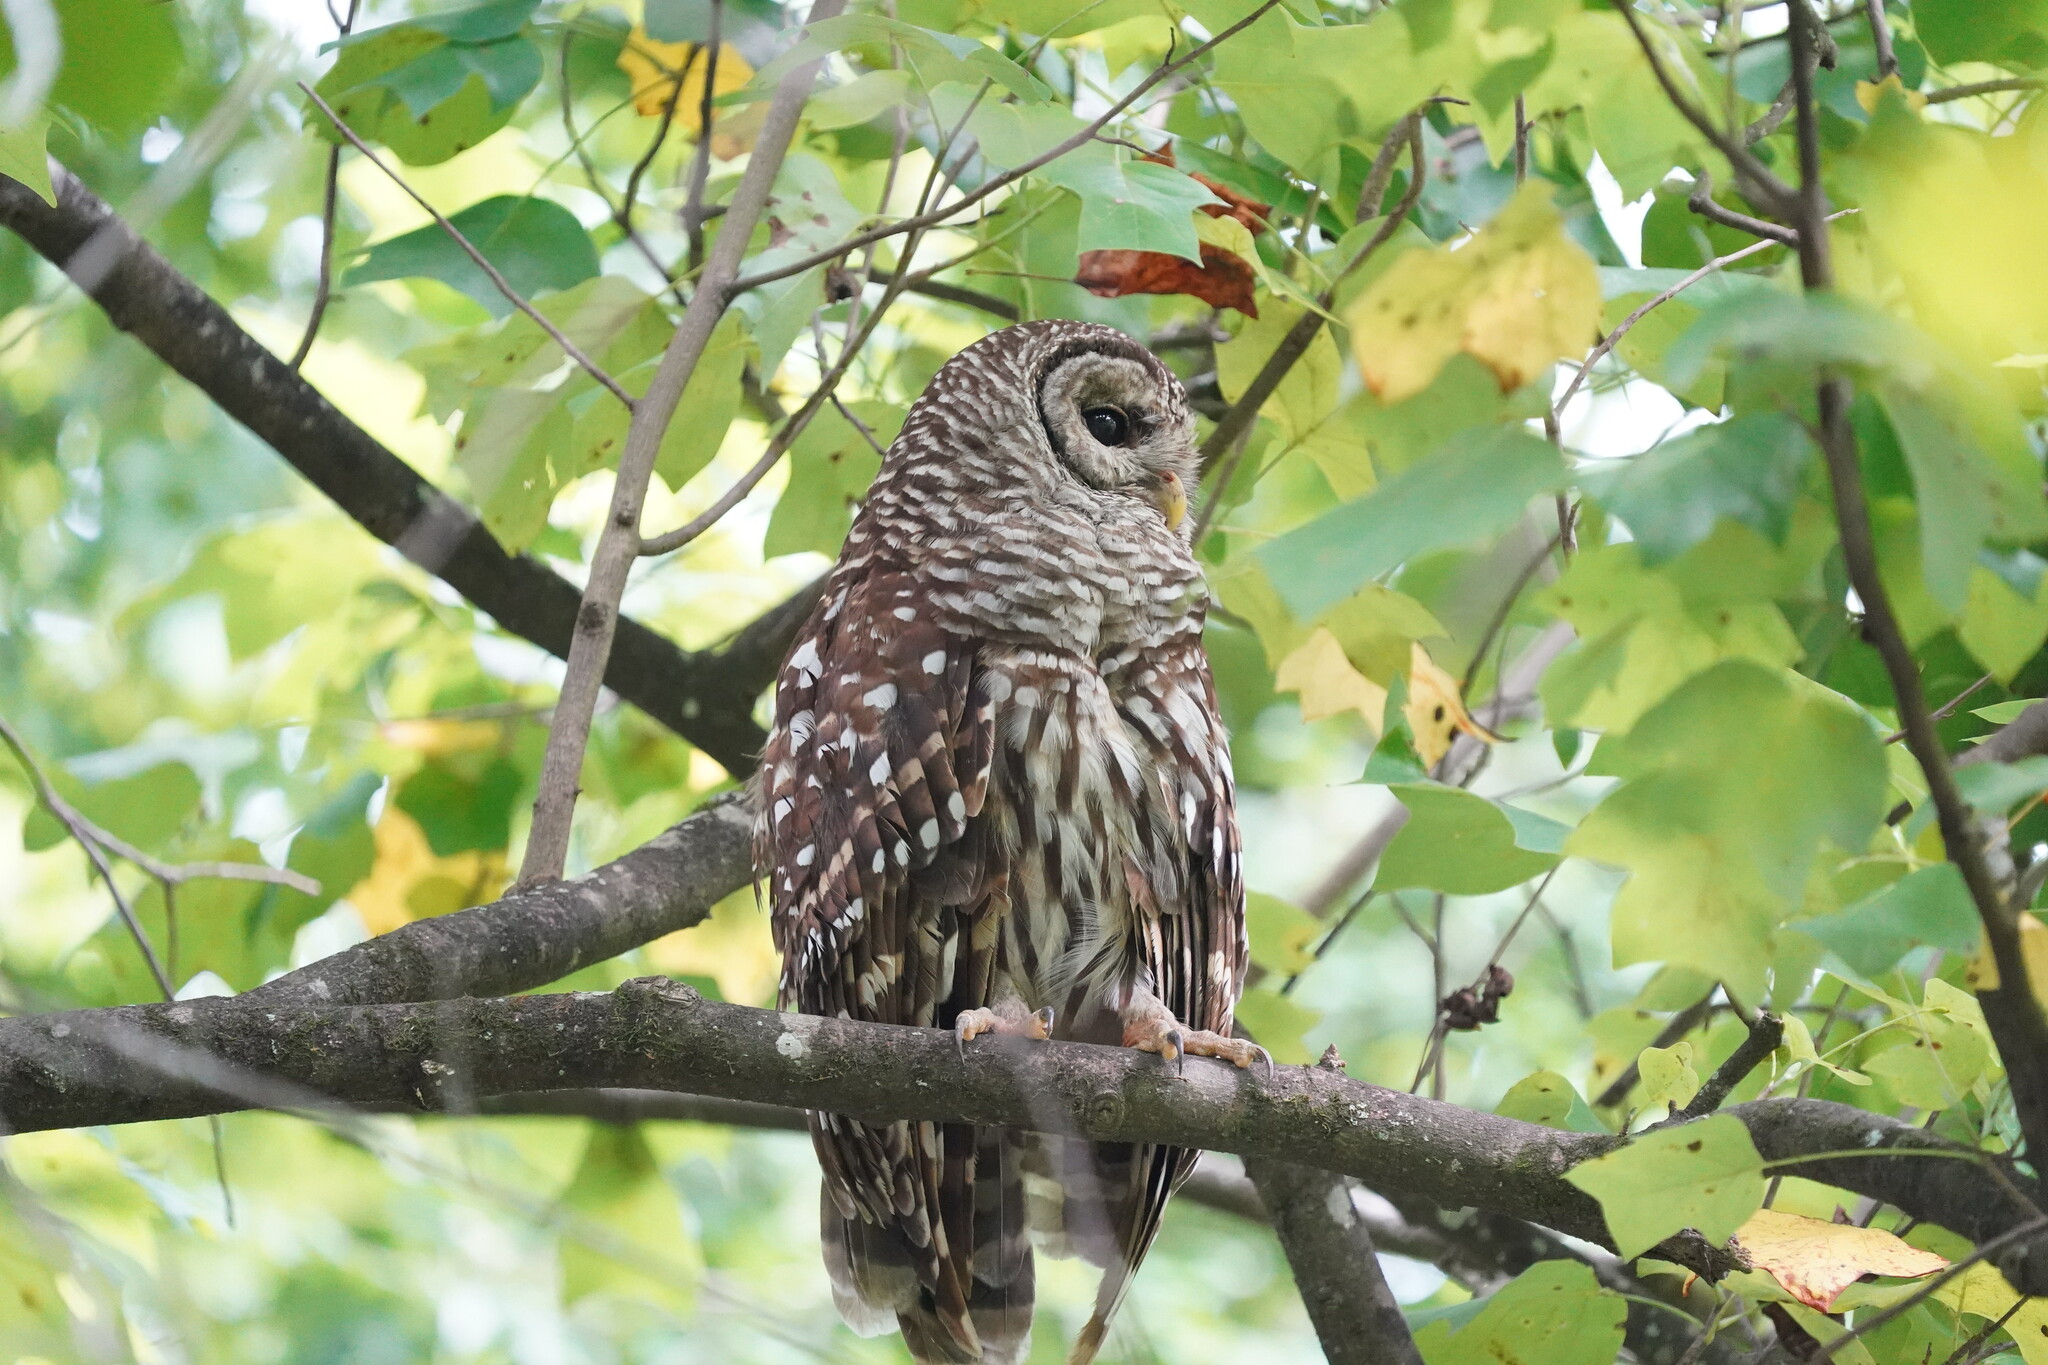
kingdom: Animalia
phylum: Chordata
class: Aves
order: Strigiformes
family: Strigidae
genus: Strix
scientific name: Strix varia
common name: Barred owl
